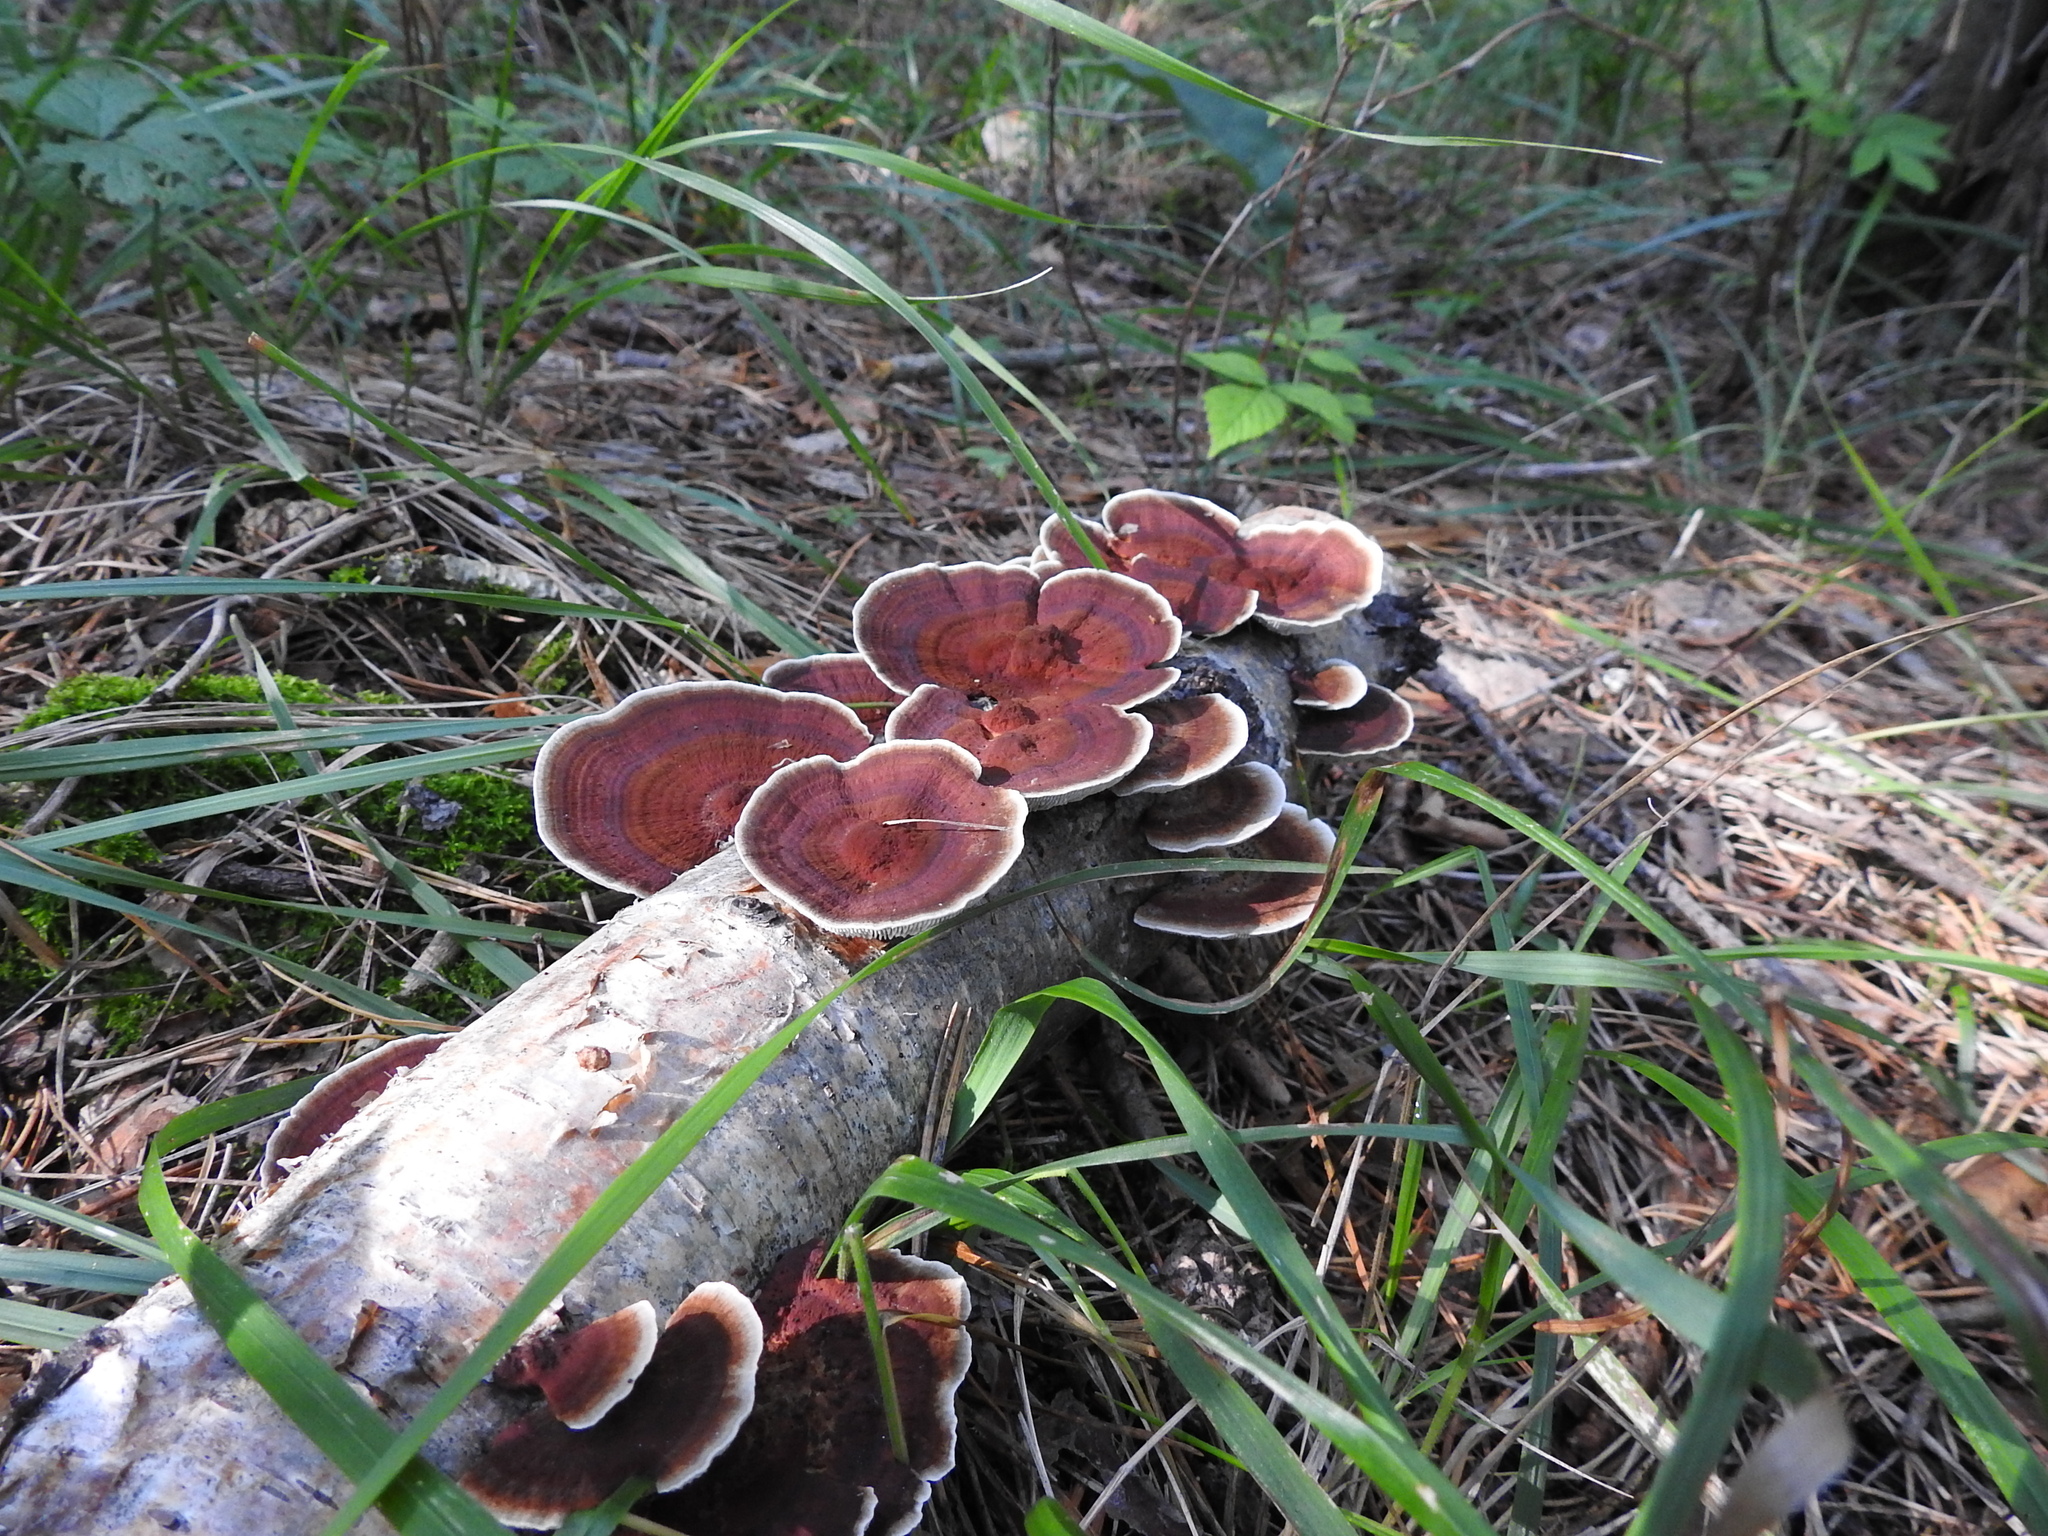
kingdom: Fungi
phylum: Basidiomycota
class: Agaricomycetes
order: Polyporales
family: Polyporaceae
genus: Daedaleopsis
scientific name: Daedaleopsis tricolor
